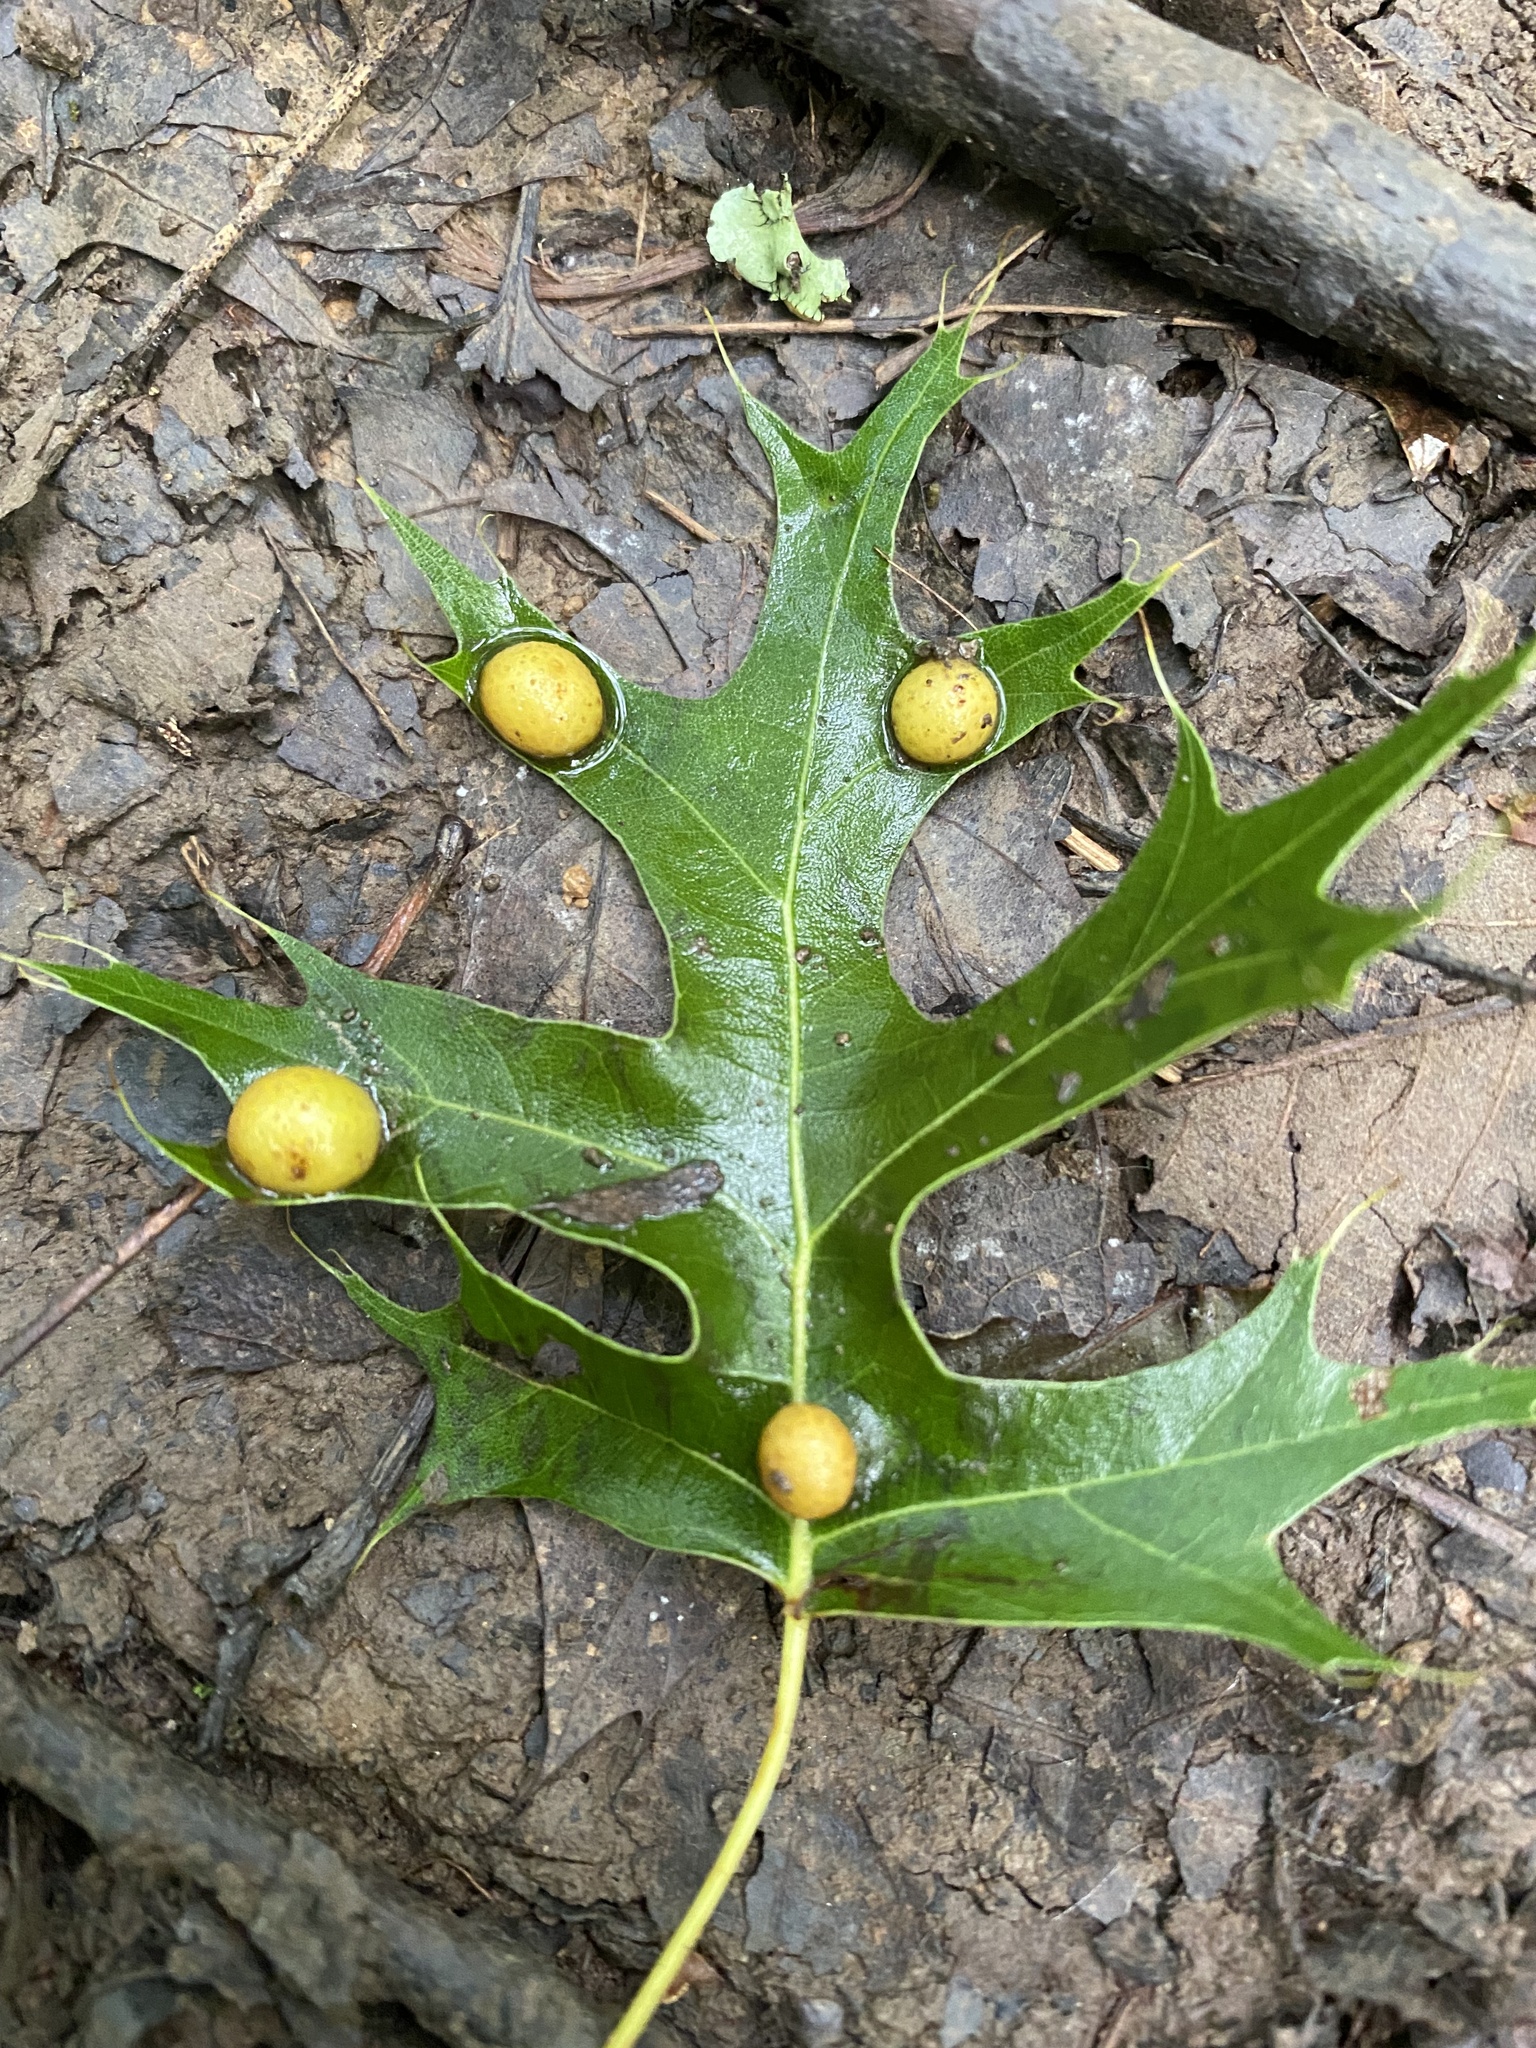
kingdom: Animalia
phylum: Arthropoda
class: Insecta
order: Diptera
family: Cecidomyiidae
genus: Polystepha
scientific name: Polystepha pilulae
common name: Oak leaf gall midge
